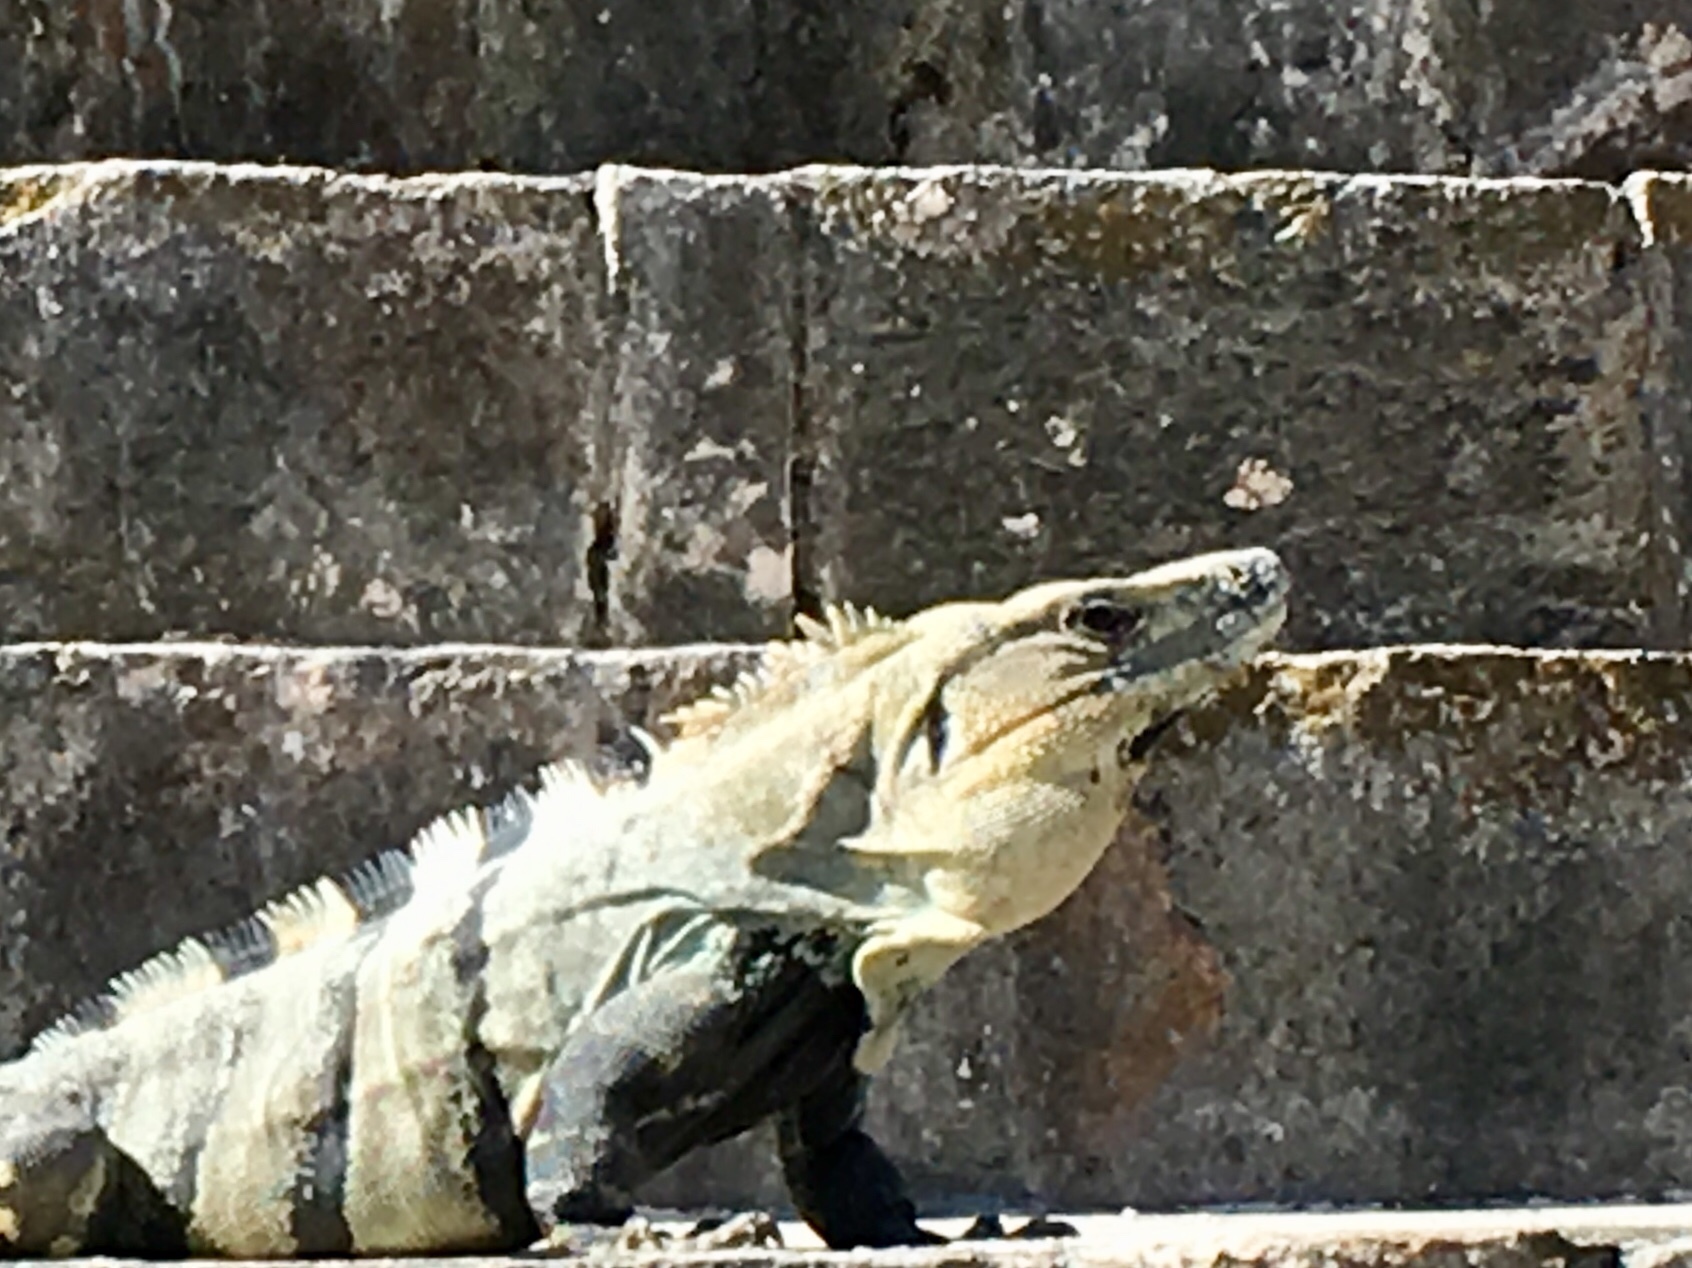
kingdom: Animalia
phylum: Chordata
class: Squamata
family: Iguanidae
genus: Ctenosaura
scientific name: Ctenosaura similis
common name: Black spiny-tailed iguana
